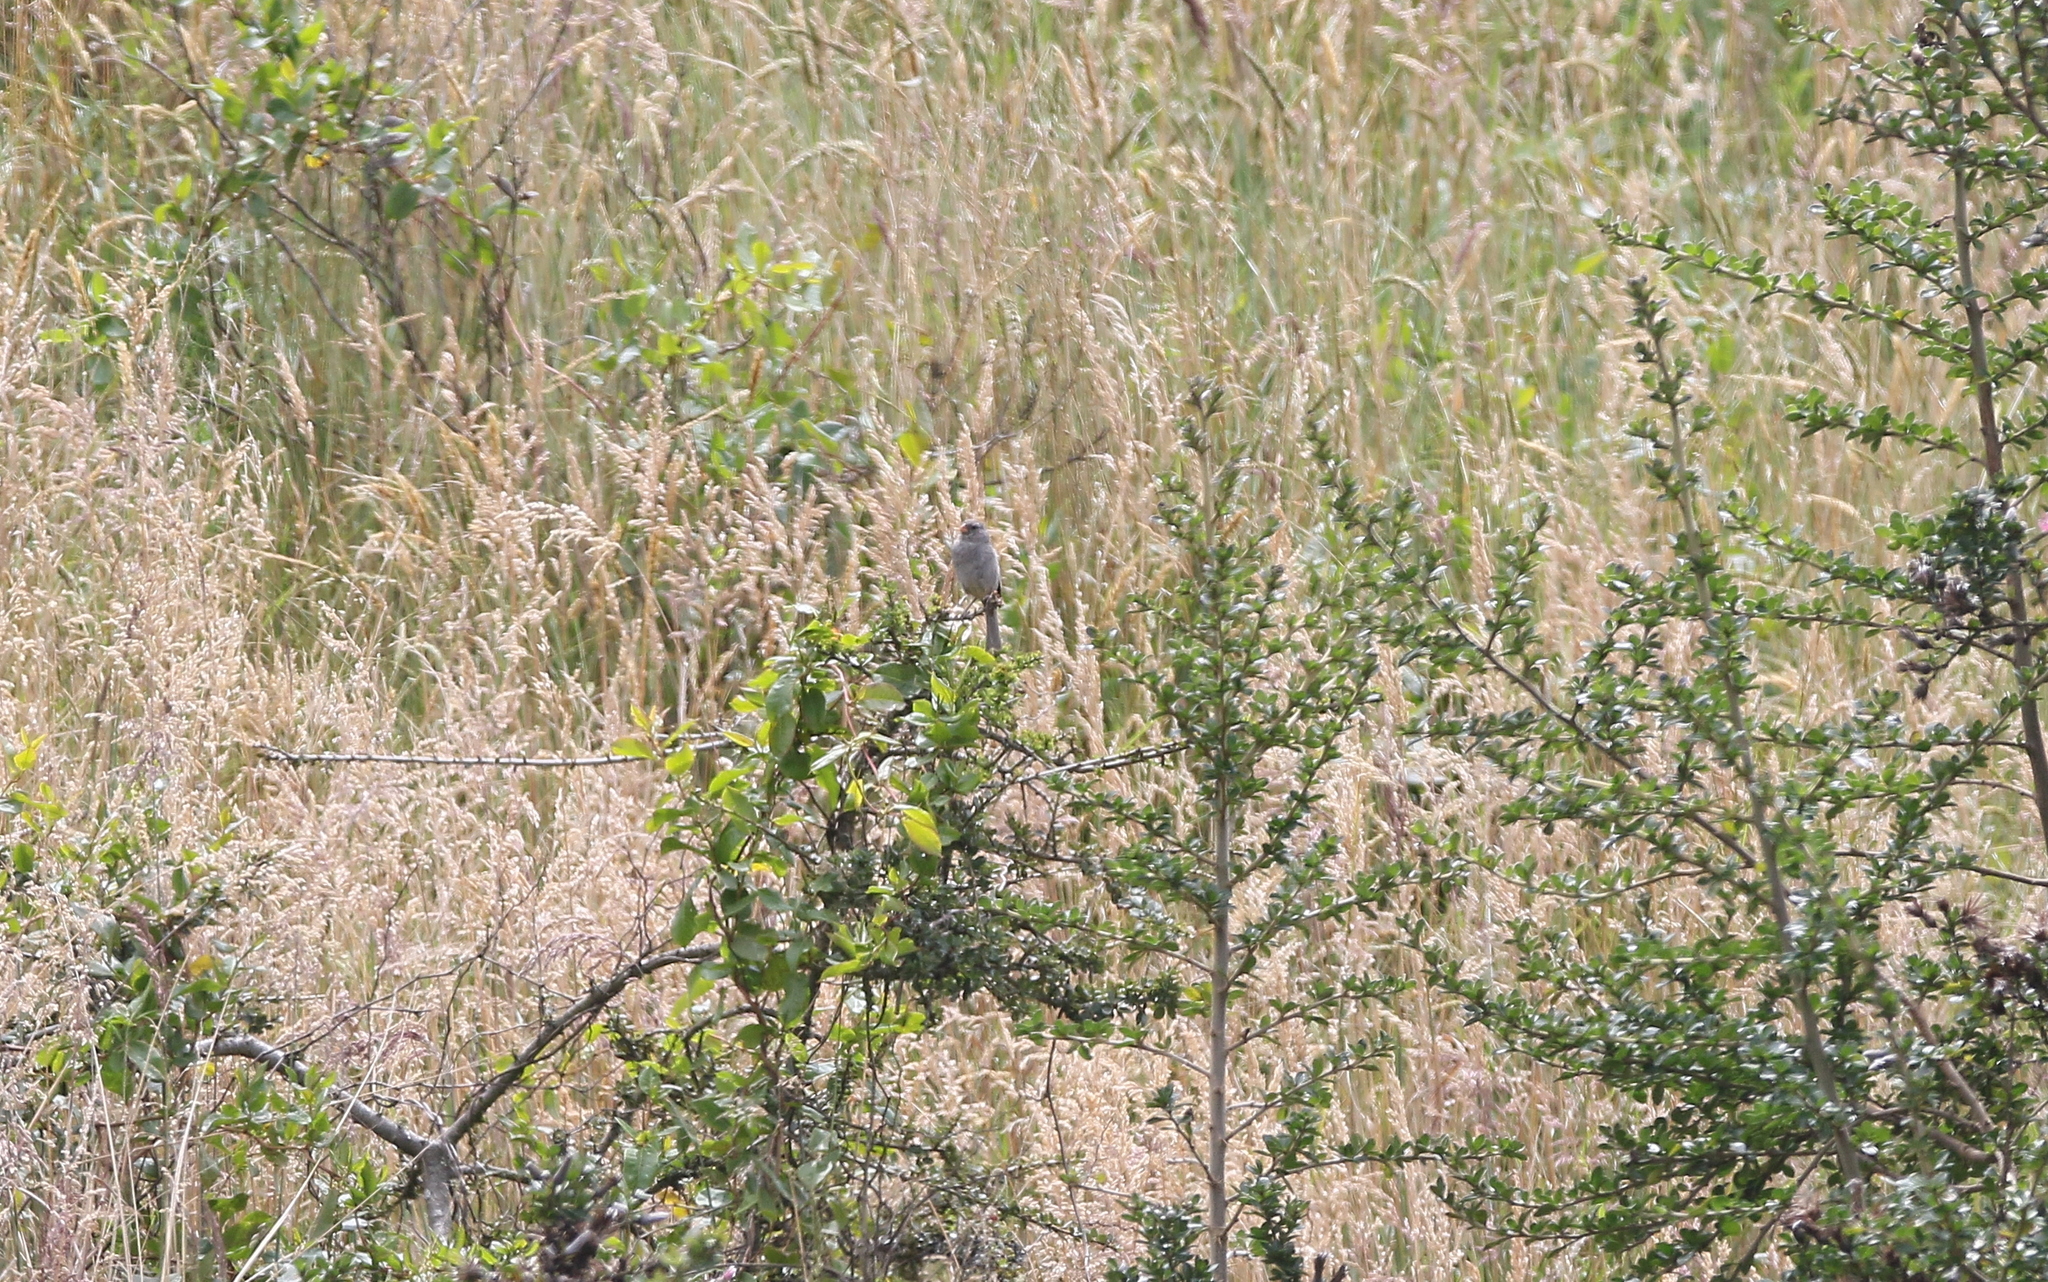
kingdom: Animalia
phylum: Chordata
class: Aves
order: Passeriformes
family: Thraupidae
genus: Catamenia
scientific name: Catamenia inornata
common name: Plain-colored seedeater
